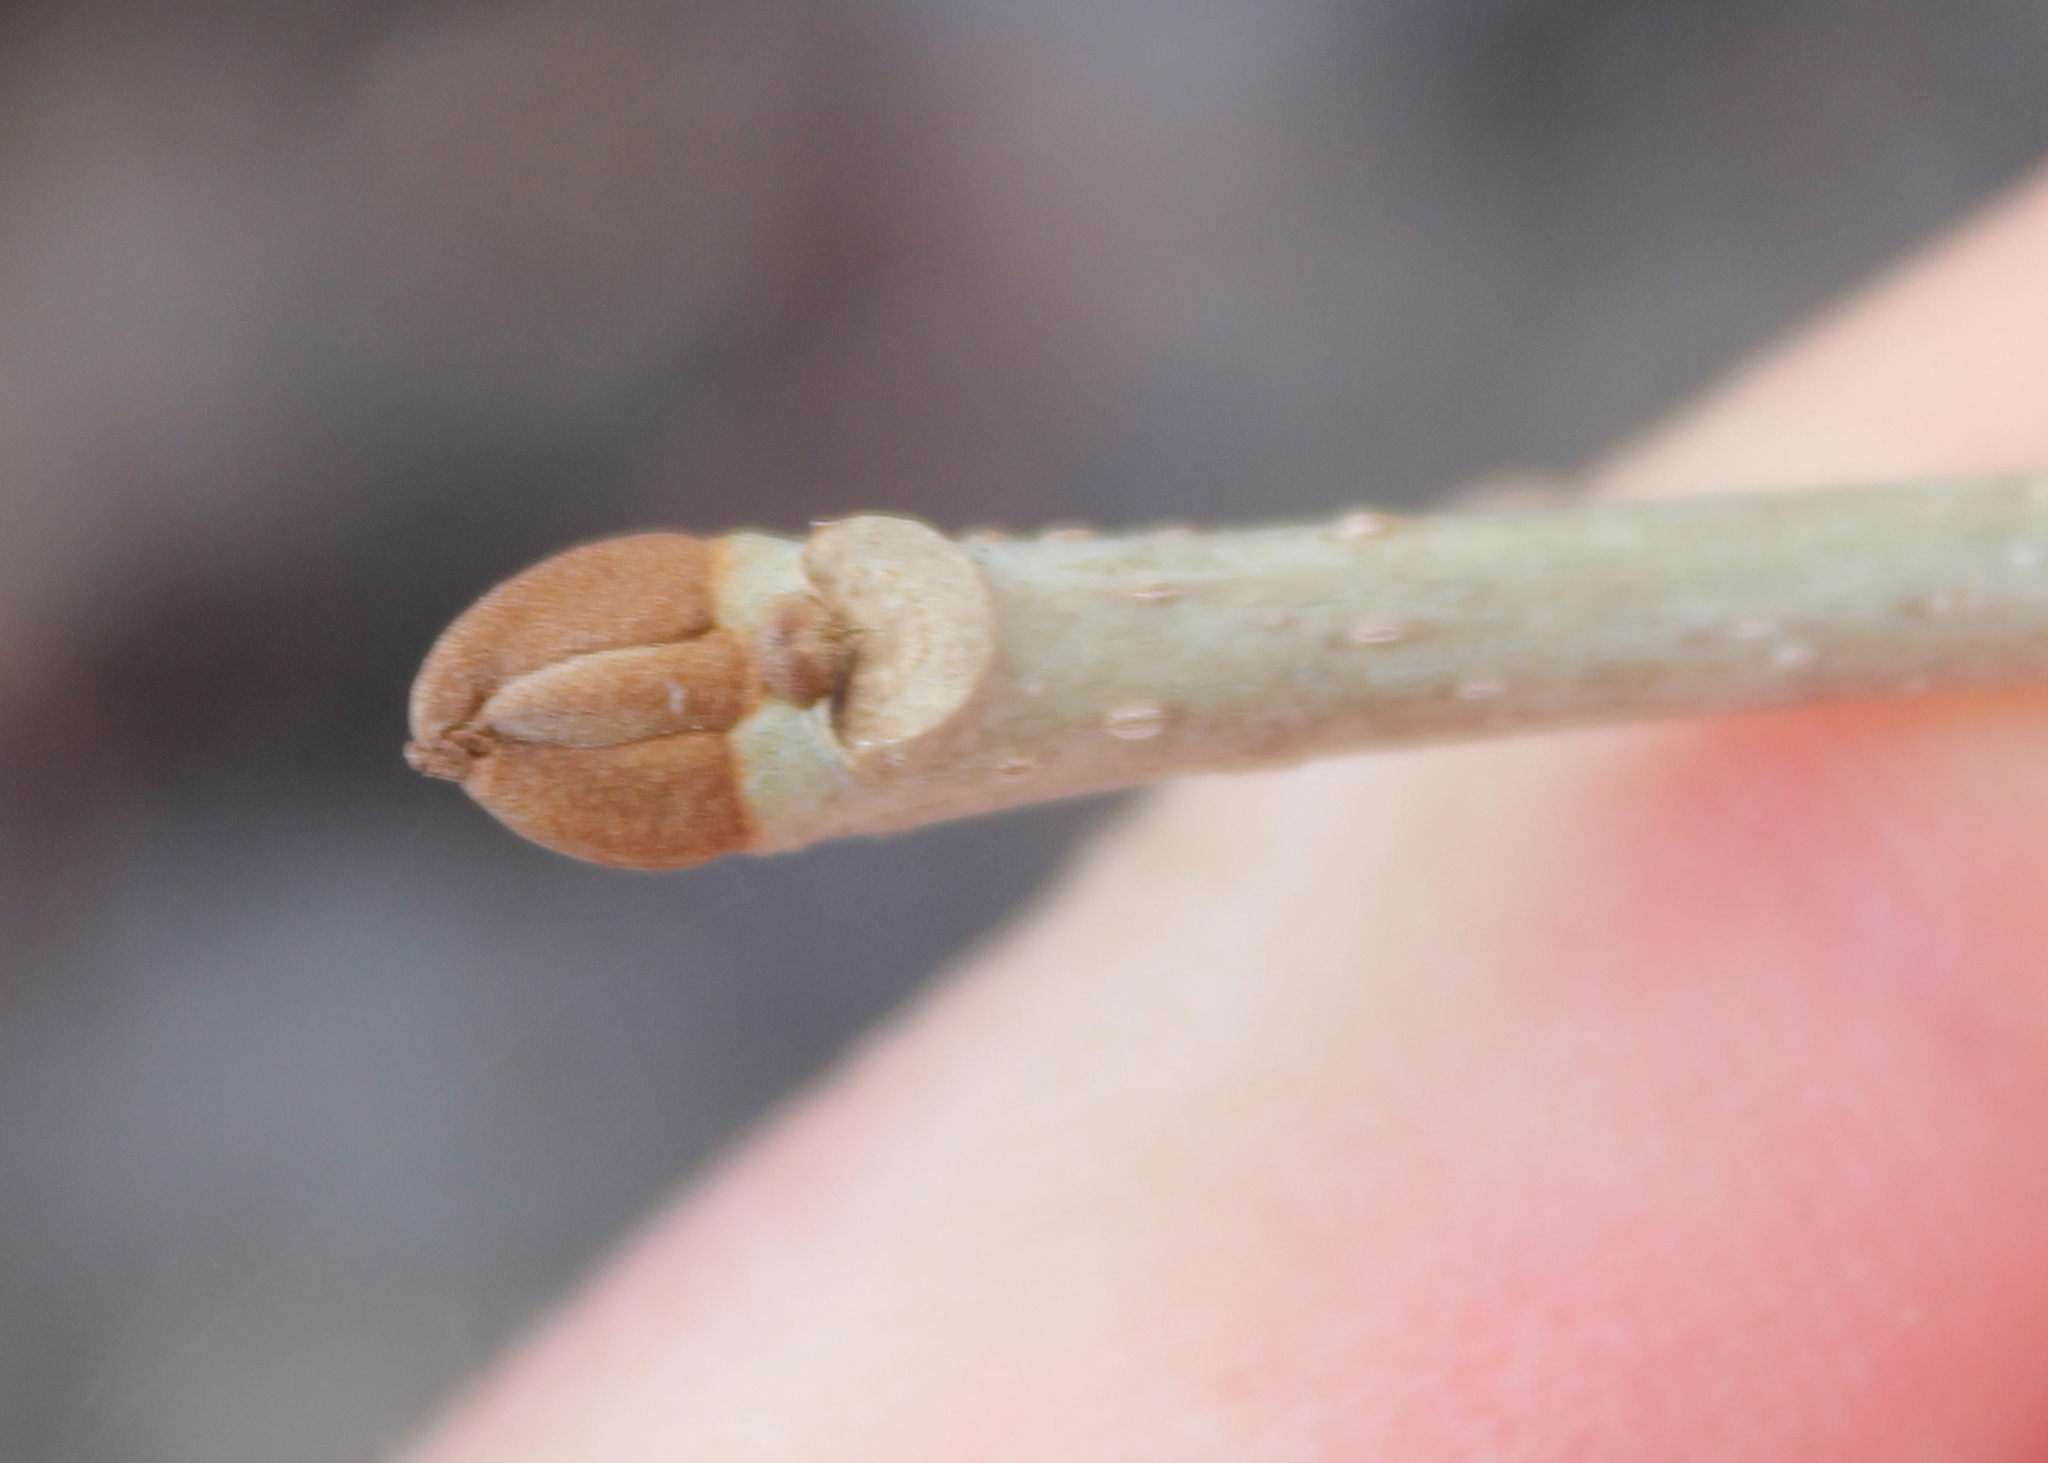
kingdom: Plantae
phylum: Tracheophyta
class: Magnoliopsida
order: Lamiales
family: Oleaceae
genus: Fraxinus
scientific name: Fraxinus nigra
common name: Black ash
